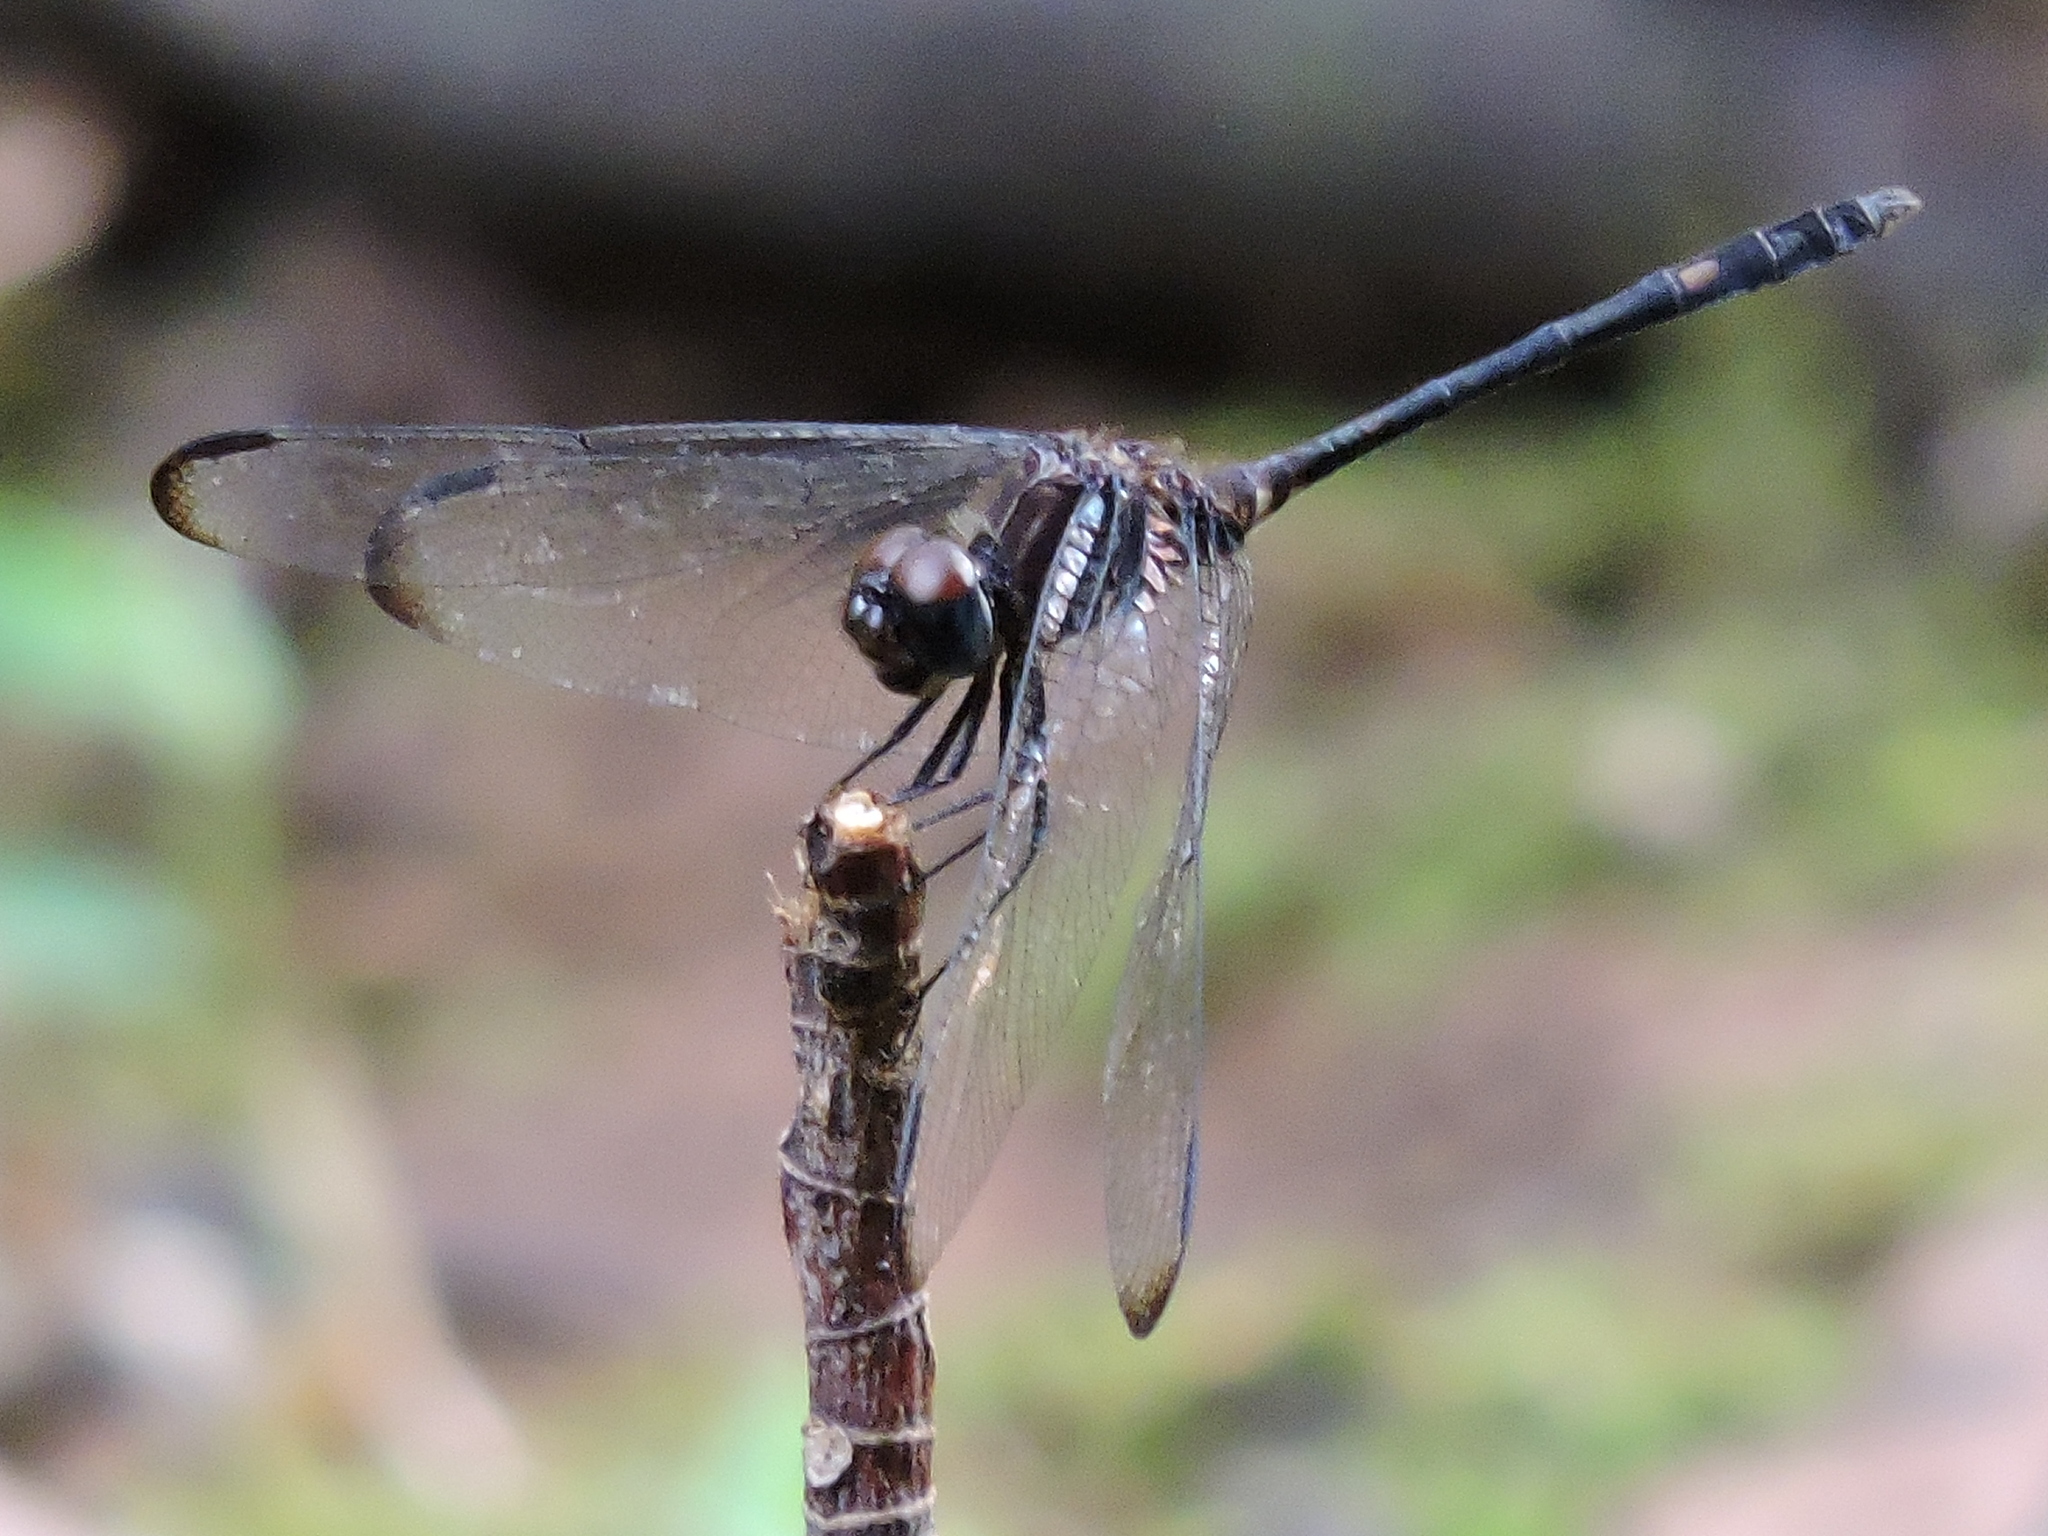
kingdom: Animalia
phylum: Arthropoda
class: Insecta
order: Odonata
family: Libellulidae
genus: Dythemis
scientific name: Dythemis velox
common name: Swift setwing
